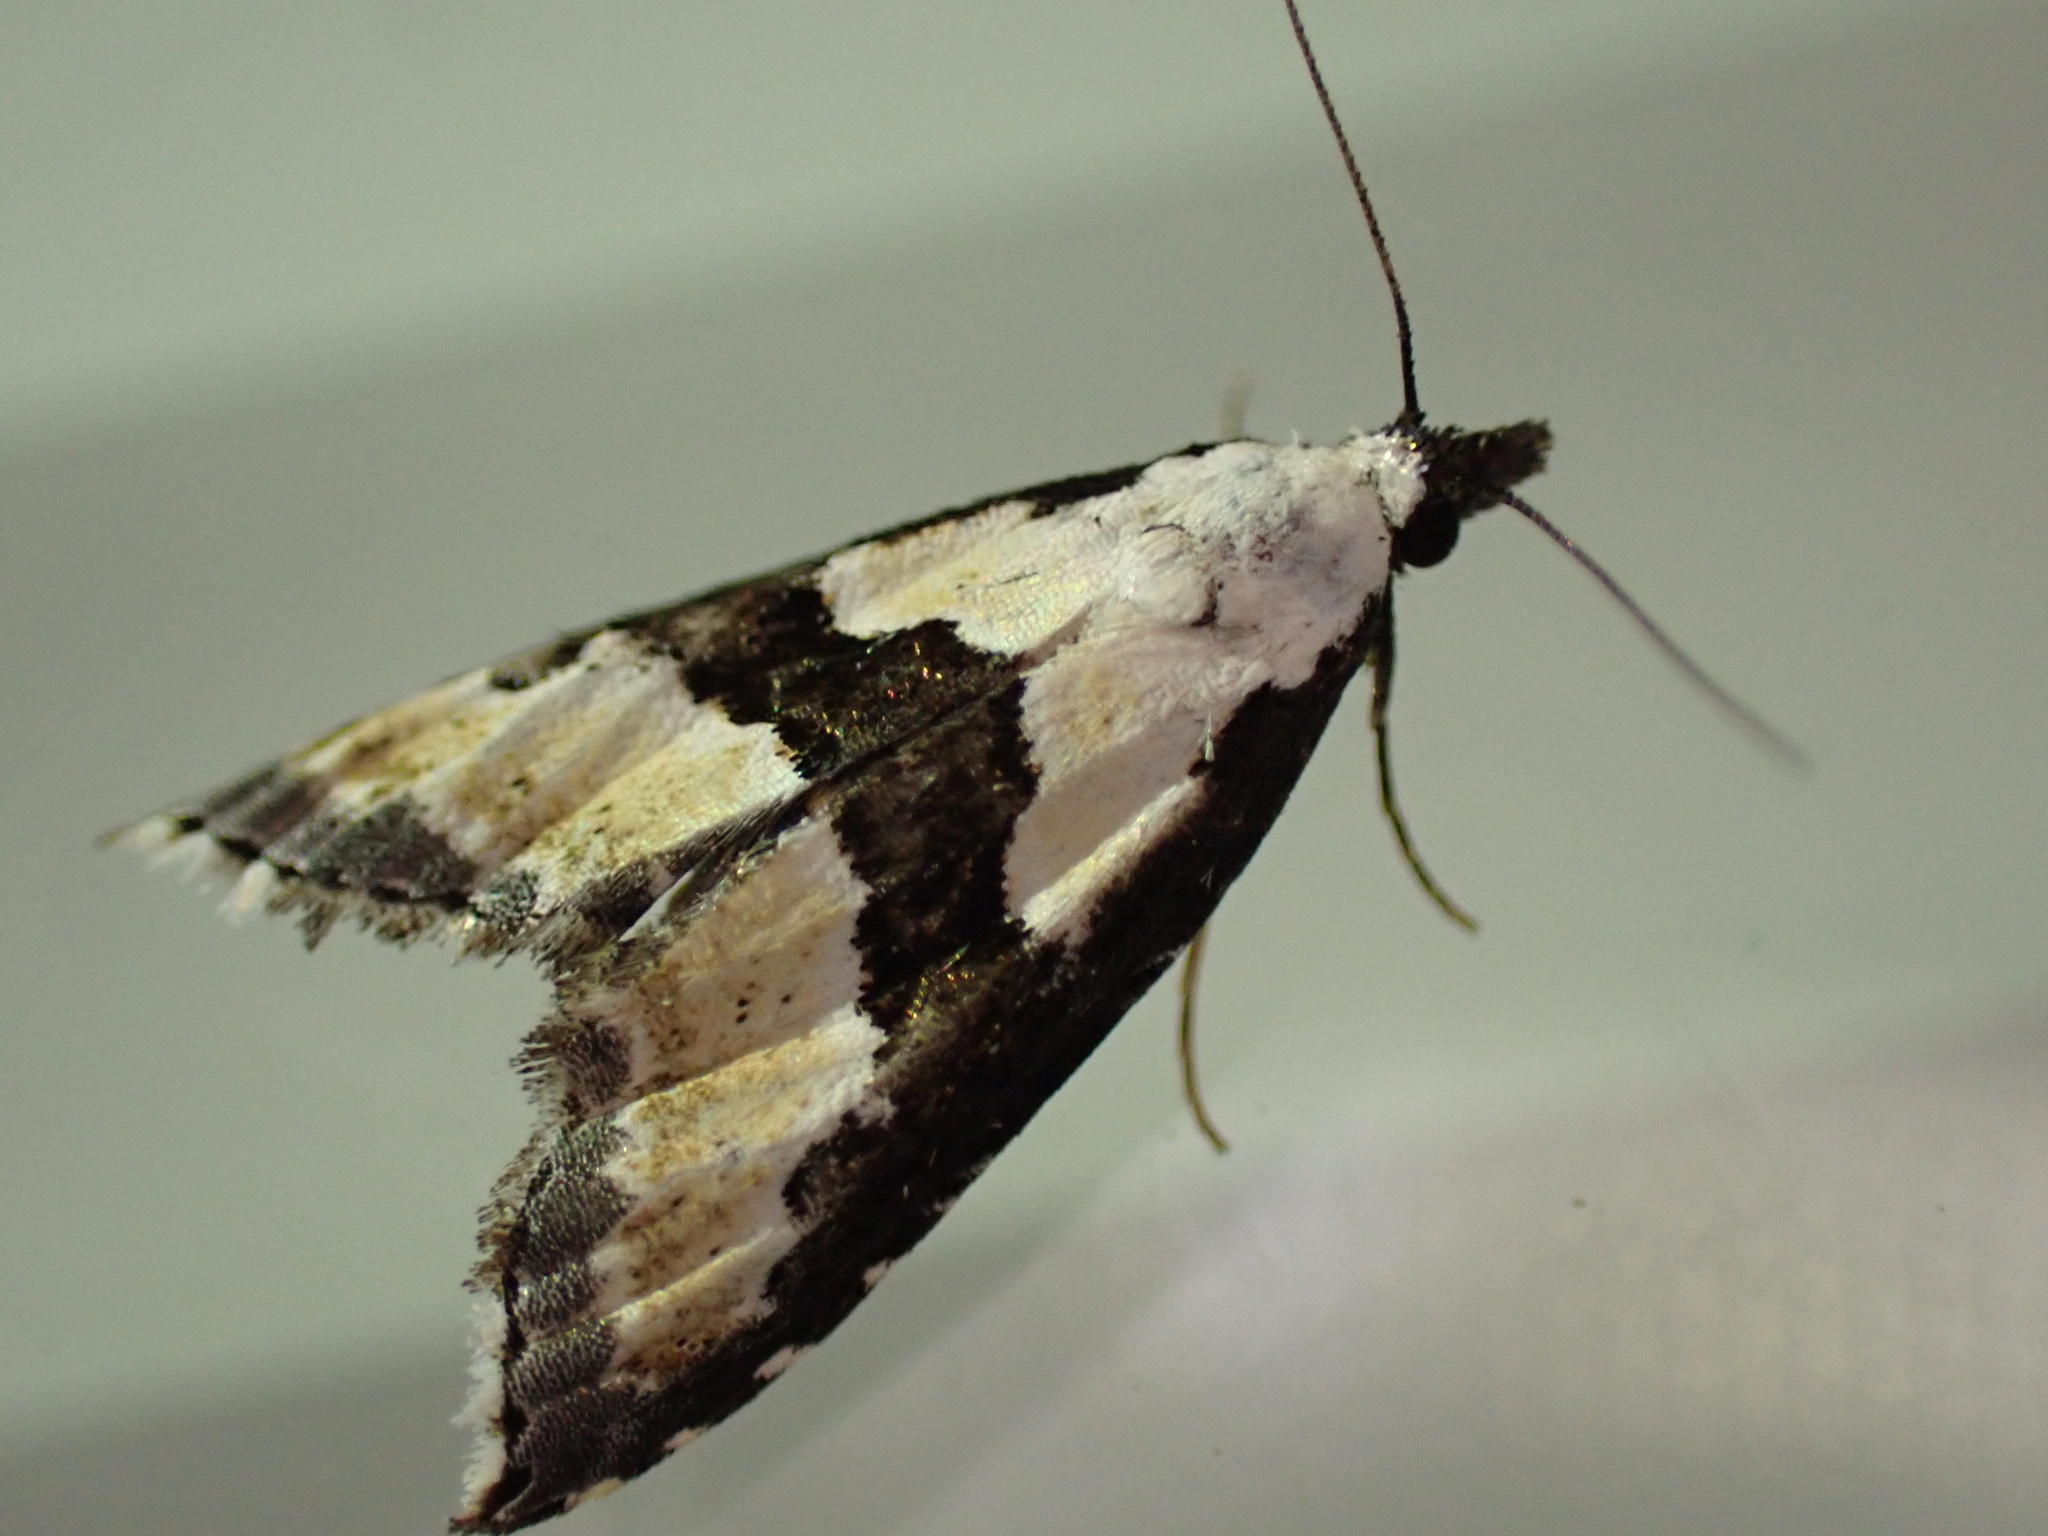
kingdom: Animalia
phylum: Arthropoda
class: Insecta
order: Lepidoptera
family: Noctuidae
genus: Nigetia
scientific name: Nigetia formosalis
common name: Thin-winged owlet
